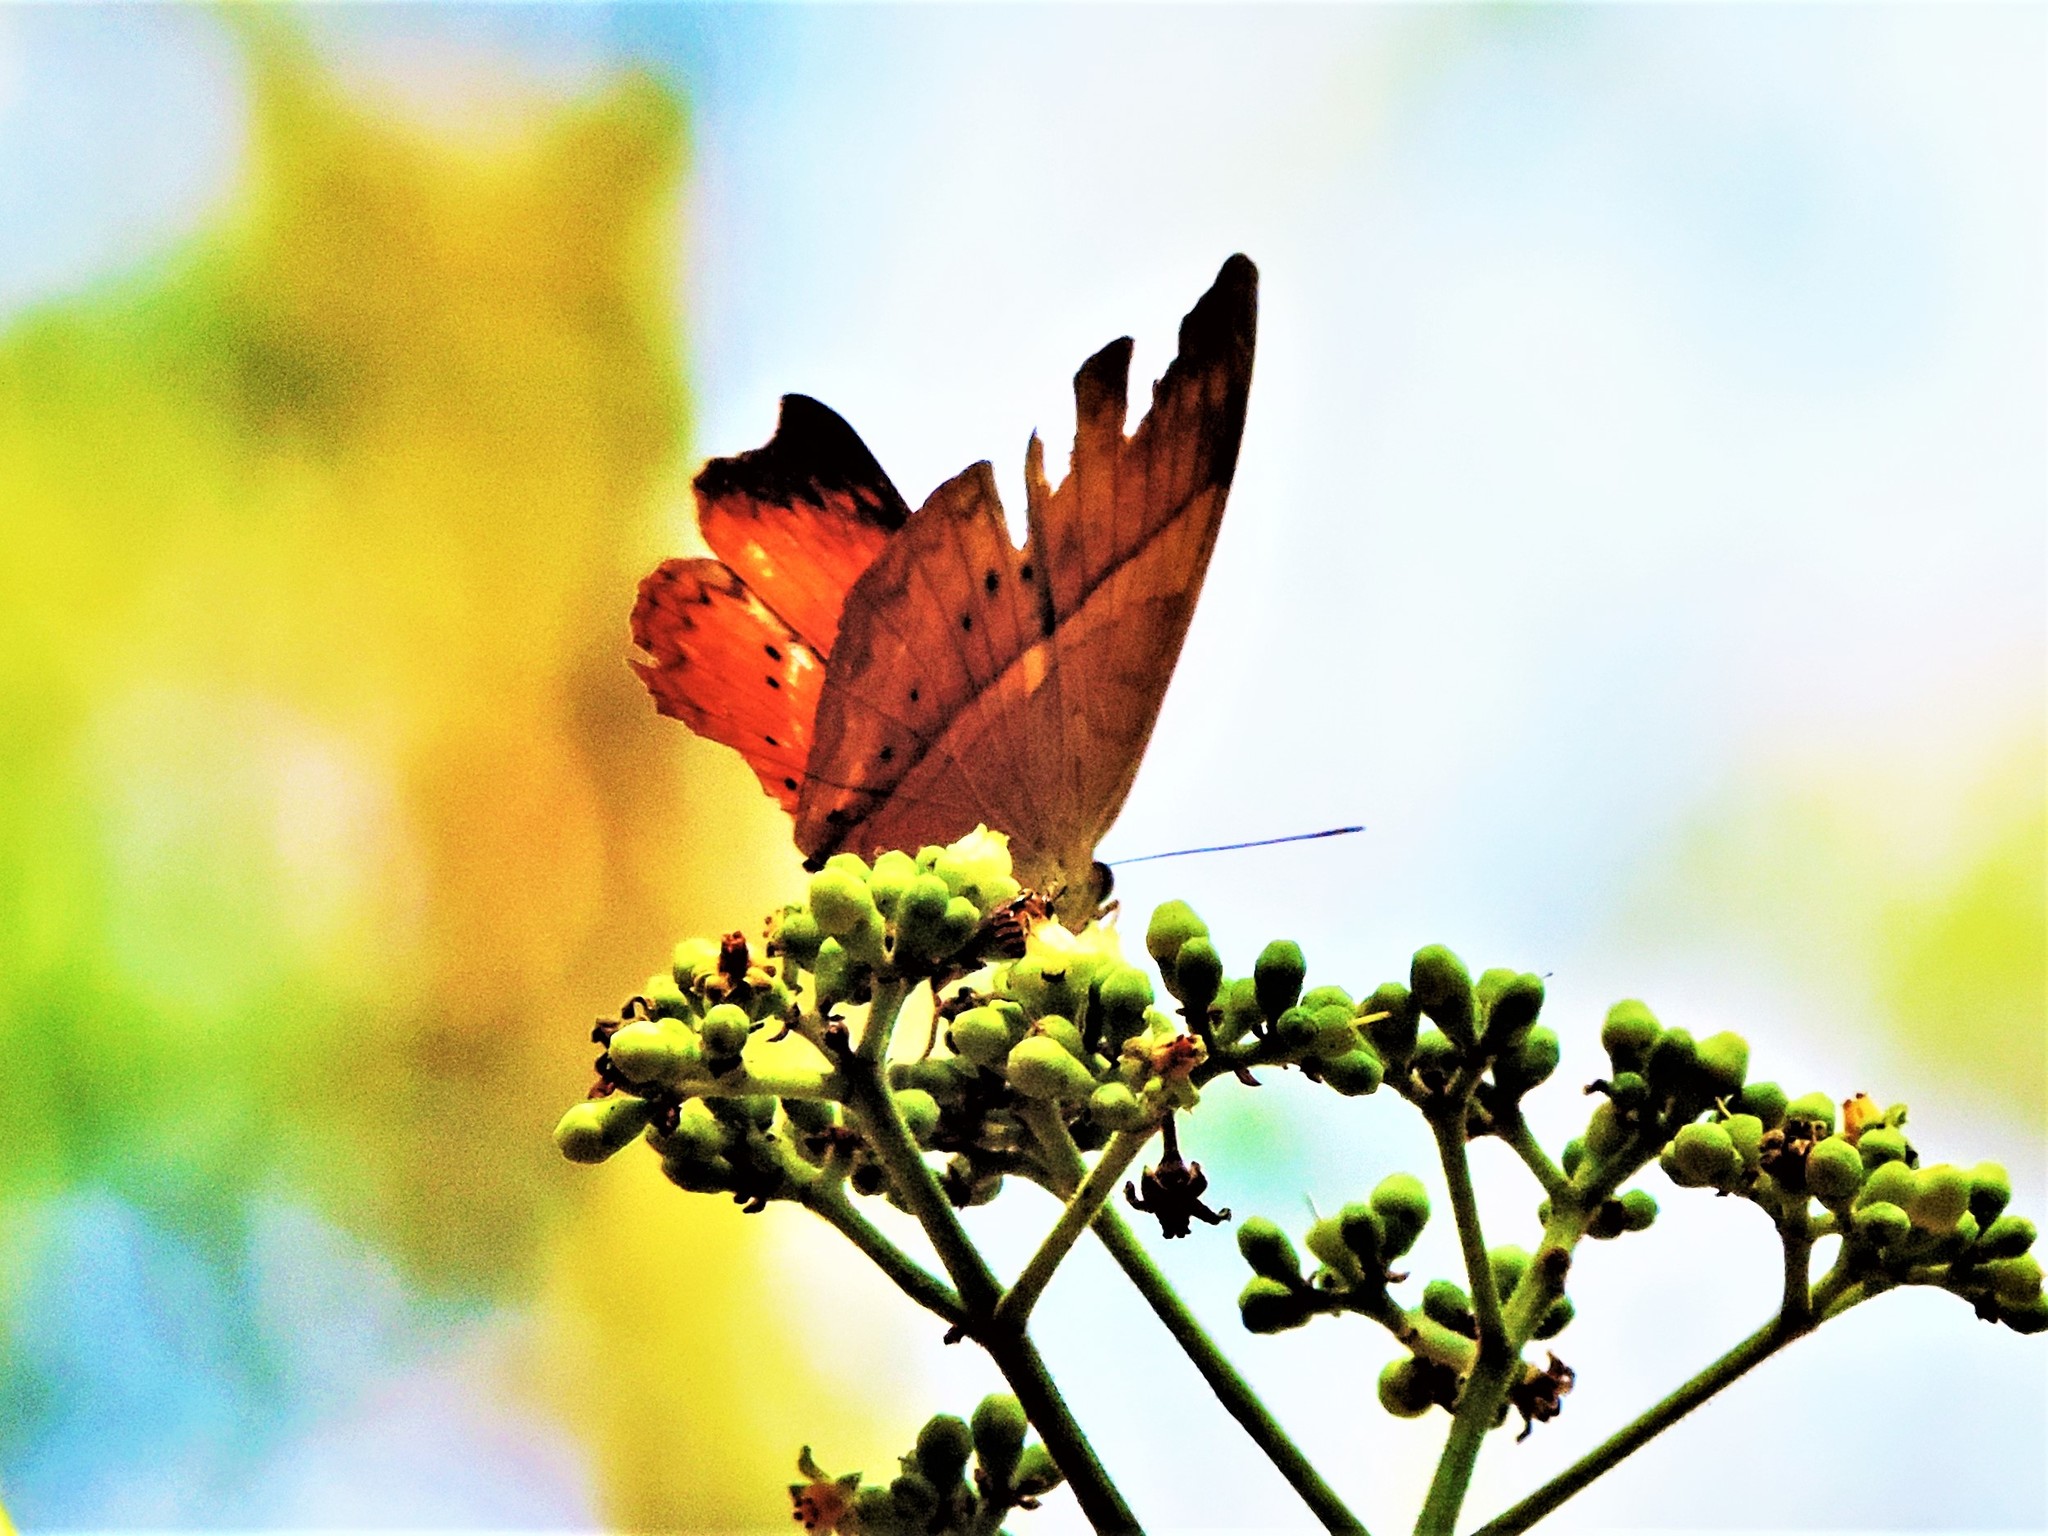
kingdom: Animalia
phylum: Arthropoda
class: Insecta
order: Lepidoptera
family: Nymphalidae
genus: Cirrochroa
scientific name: Cirrochroa thais
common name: Tamil yeoman
